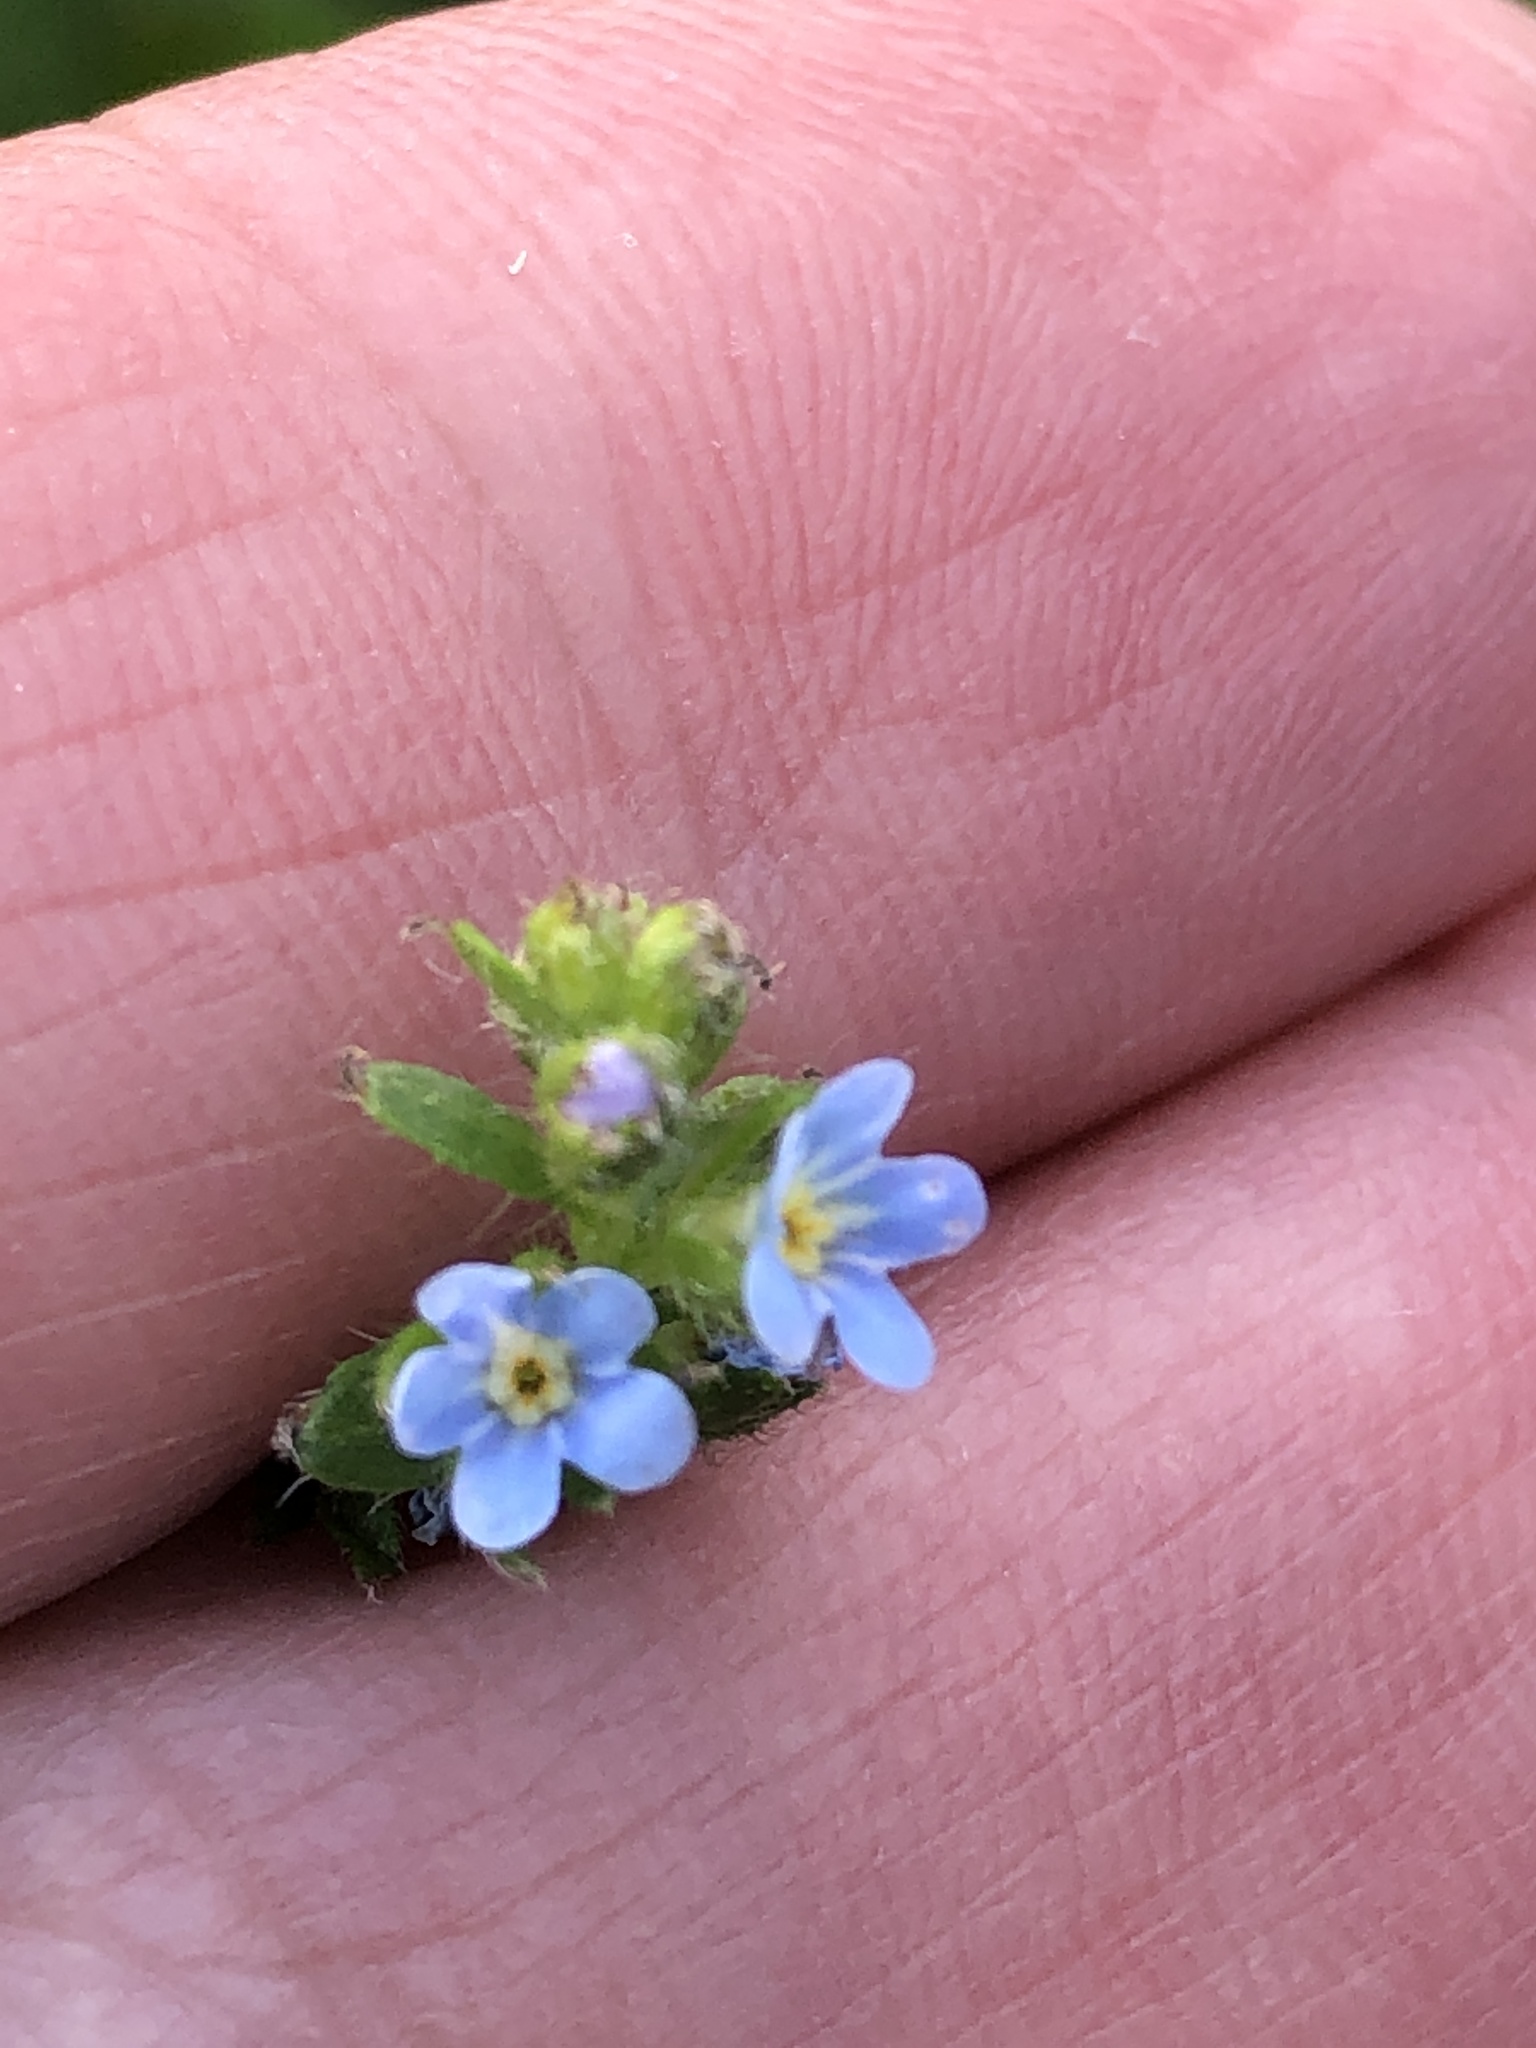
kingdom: Plantae
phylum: Tracheophyta
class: Magnoliopsida
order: Boraginales
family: Boraginaceae
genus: Lappula
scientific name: Lappula squarrosa
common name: European stickseed
